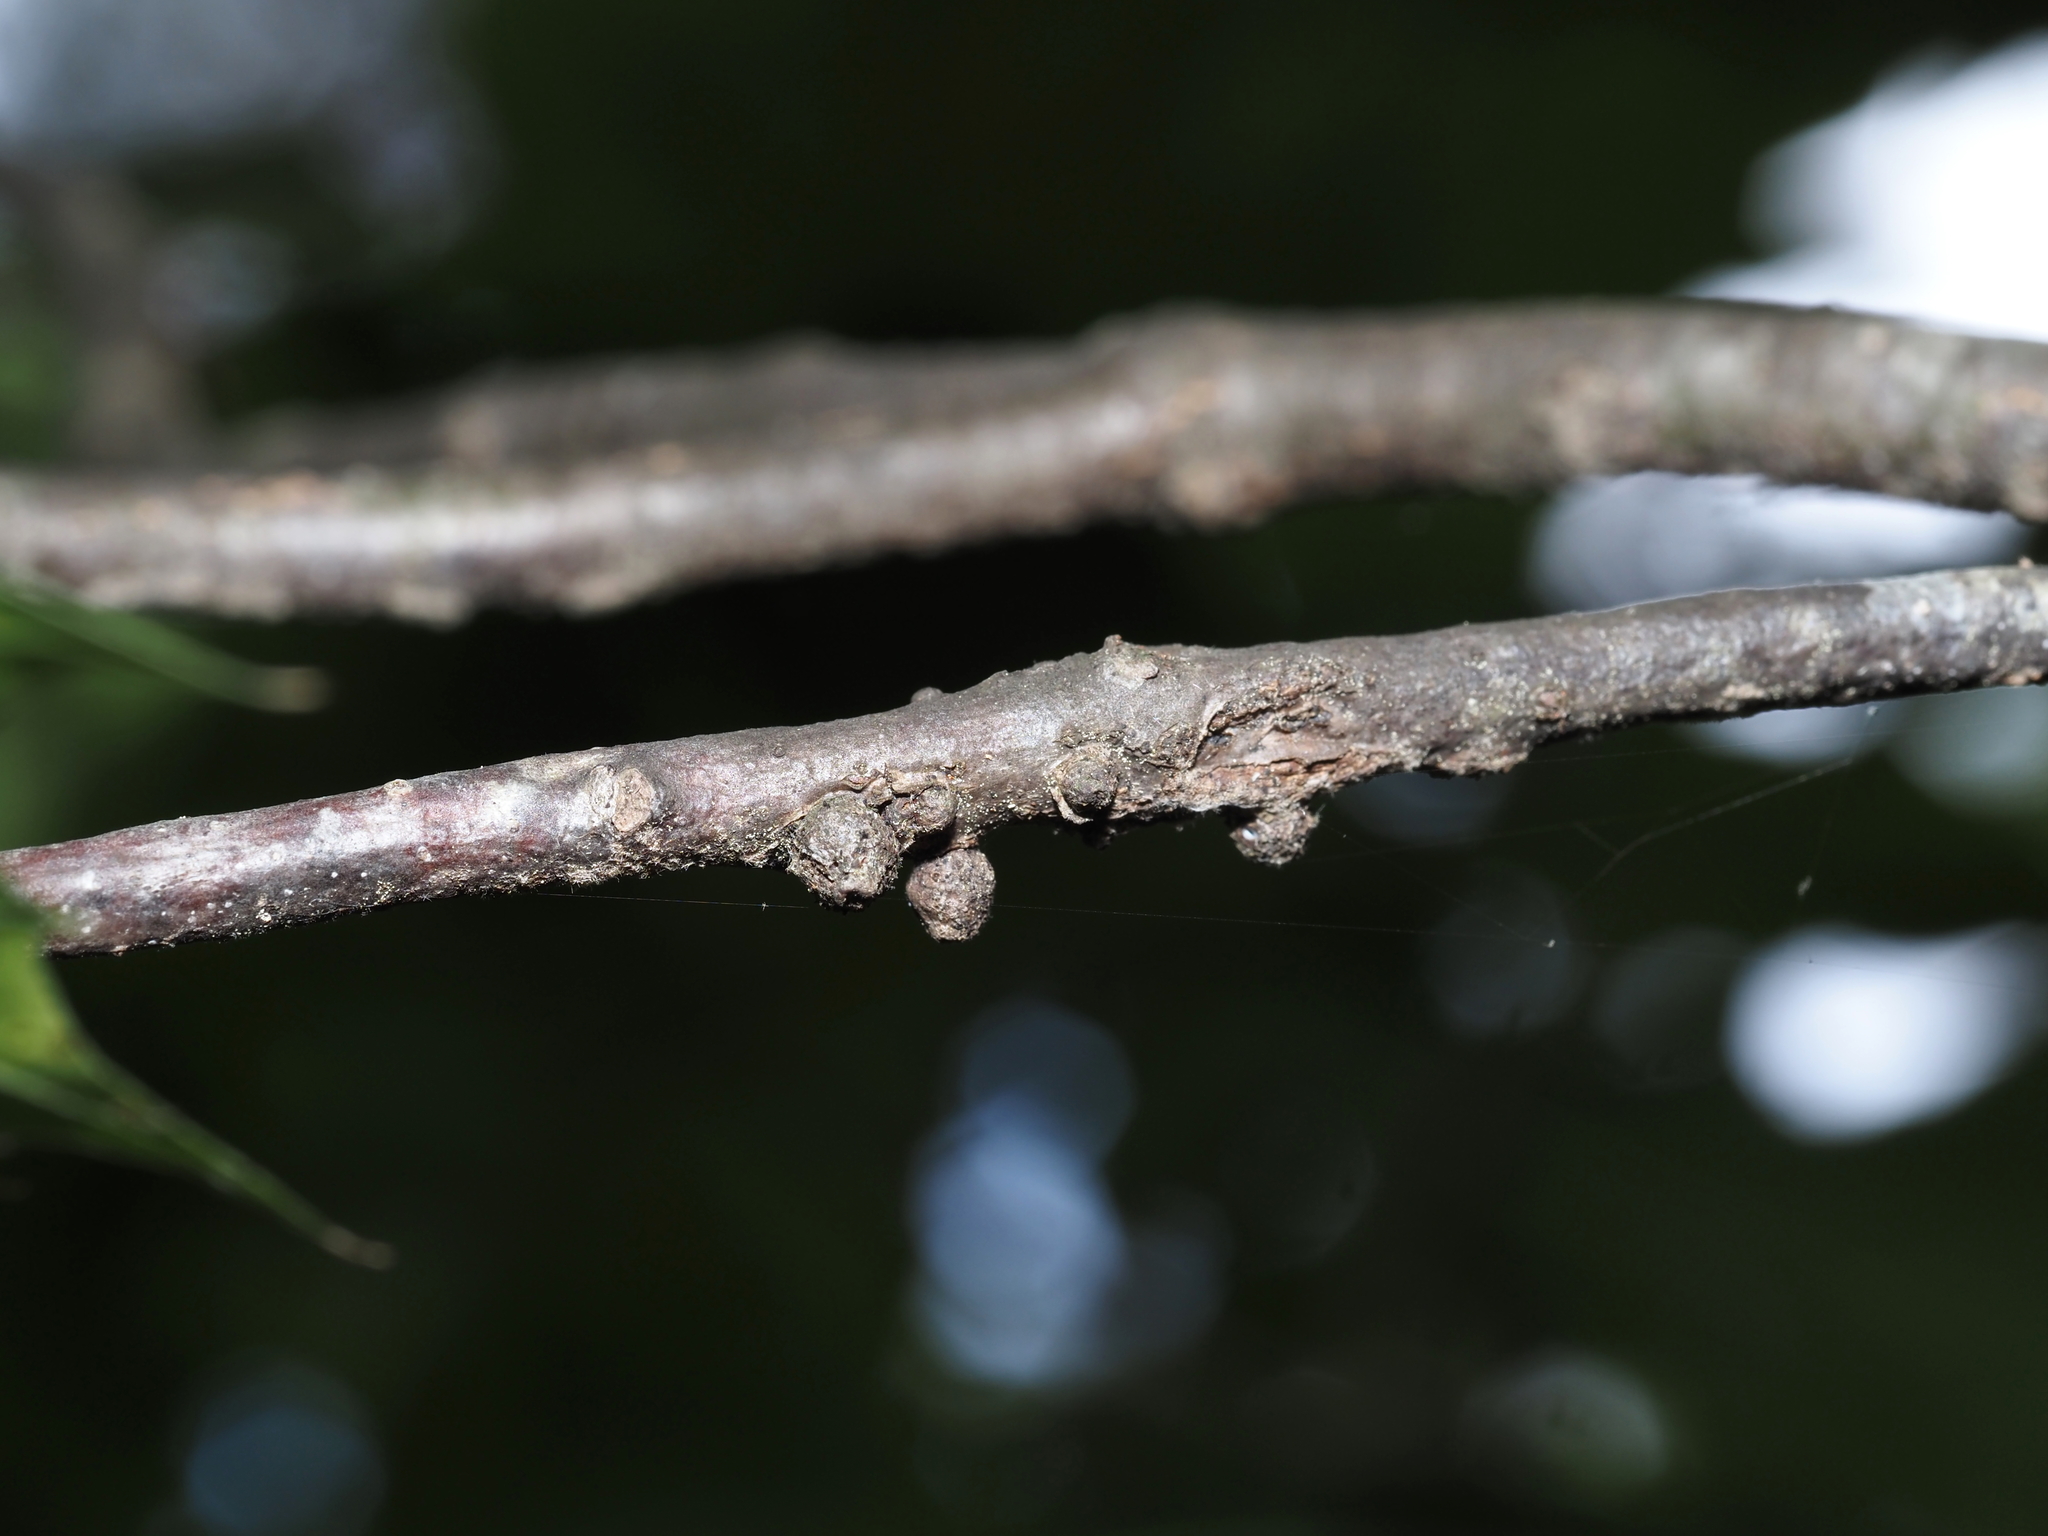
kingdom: Animalia
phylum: Arthropoda
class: Insecta
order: Hymenoptera
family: Cynipidae
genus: Synergus
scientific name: Synergus lignicola
